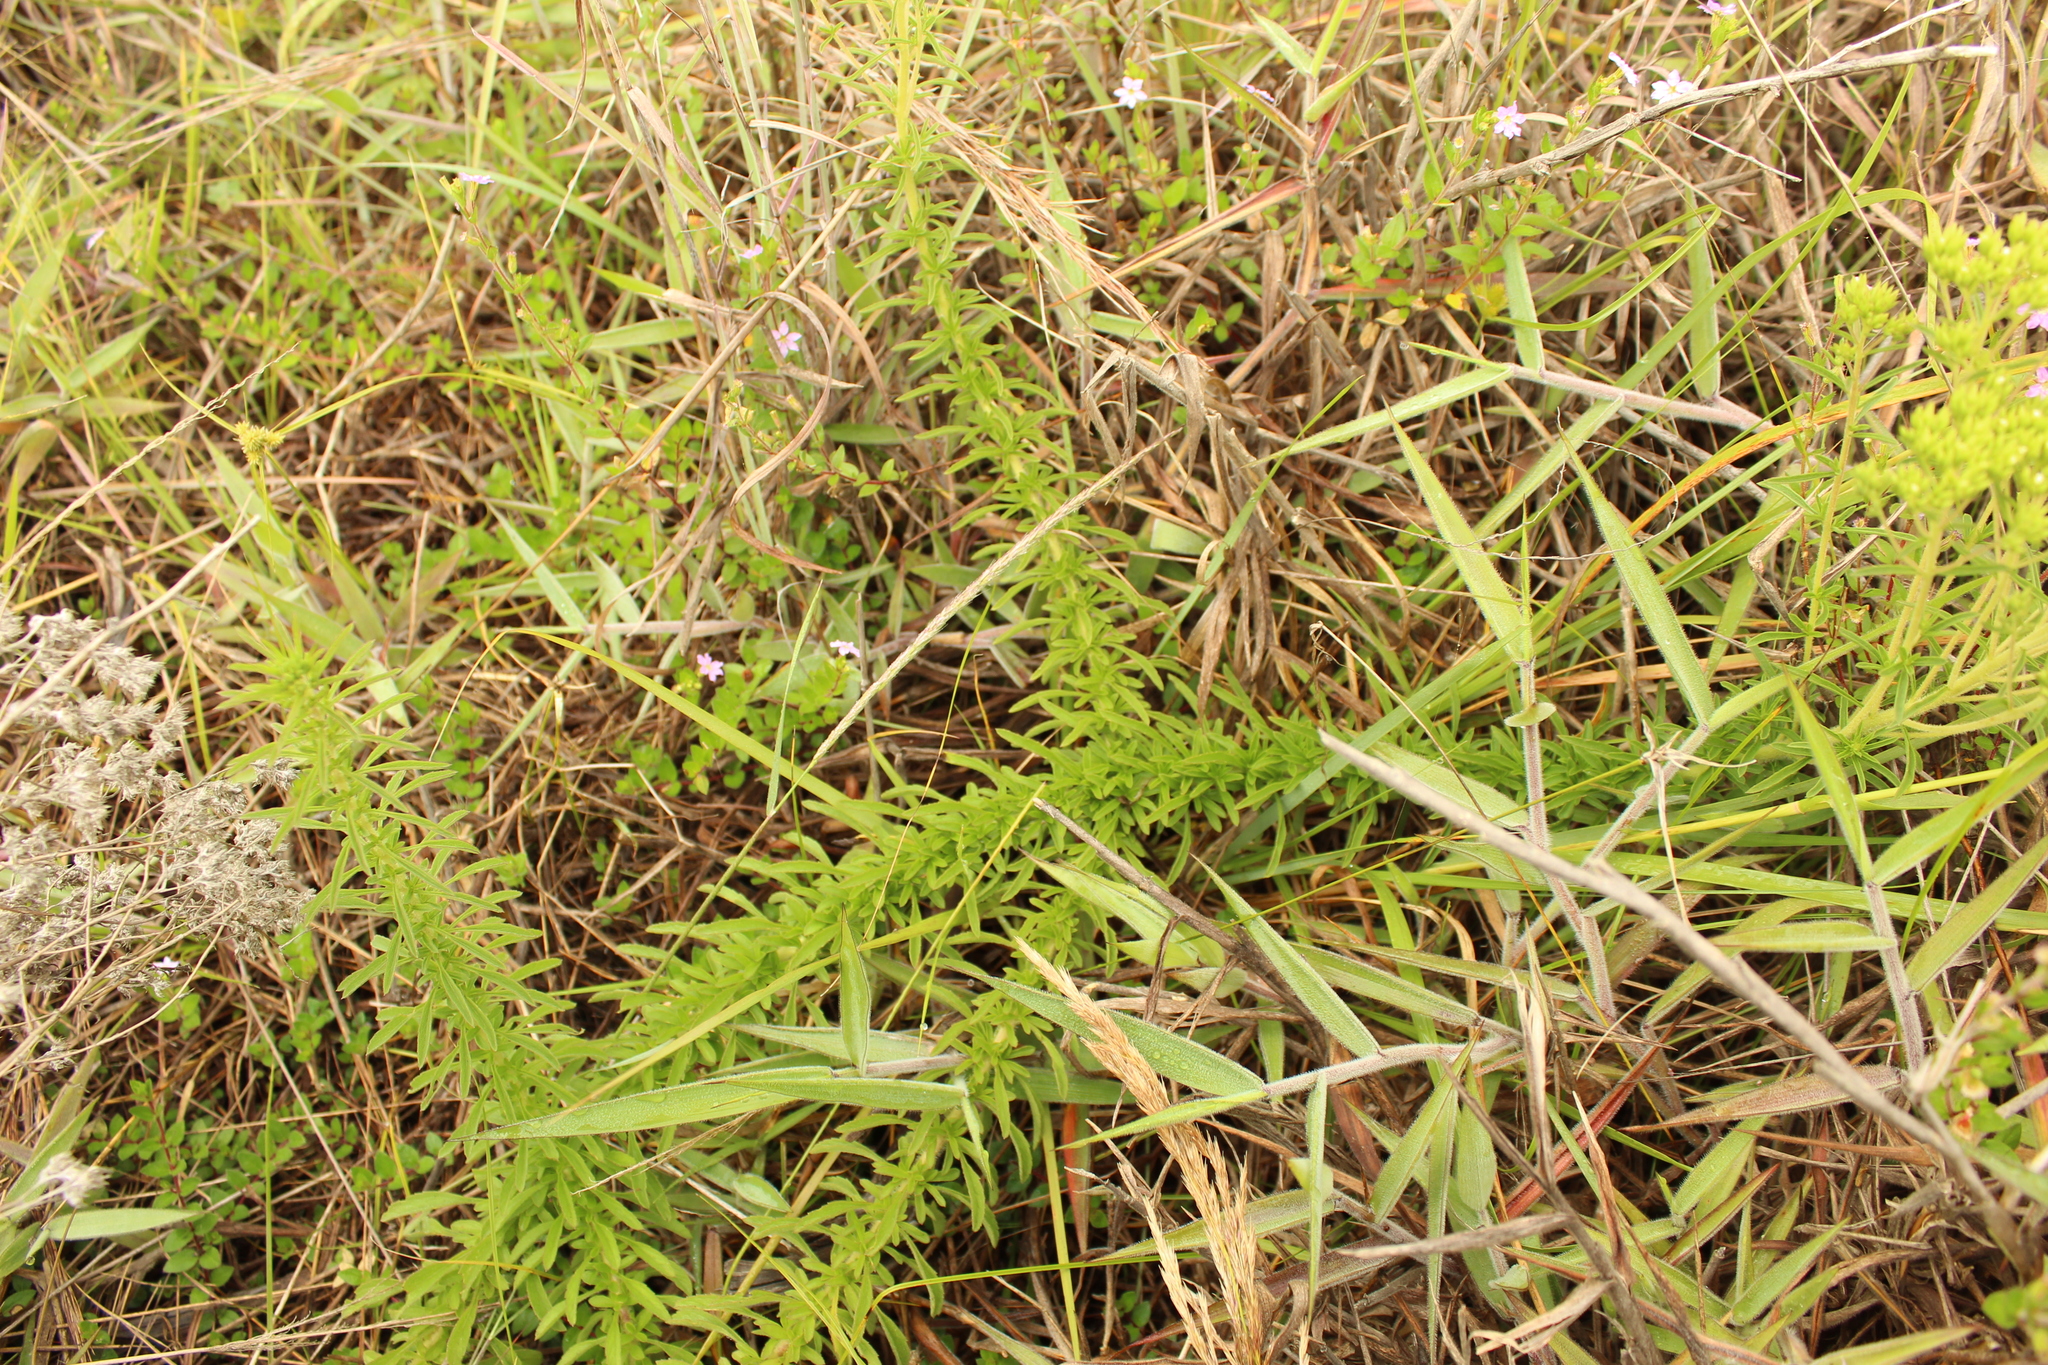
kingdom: Plantae
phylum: Tracheophyta
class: Magnoliopsida
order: Asterales
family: Asteraceae
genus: Stevia
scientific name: Stevia serrata
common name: Sawtooth candyleaf
